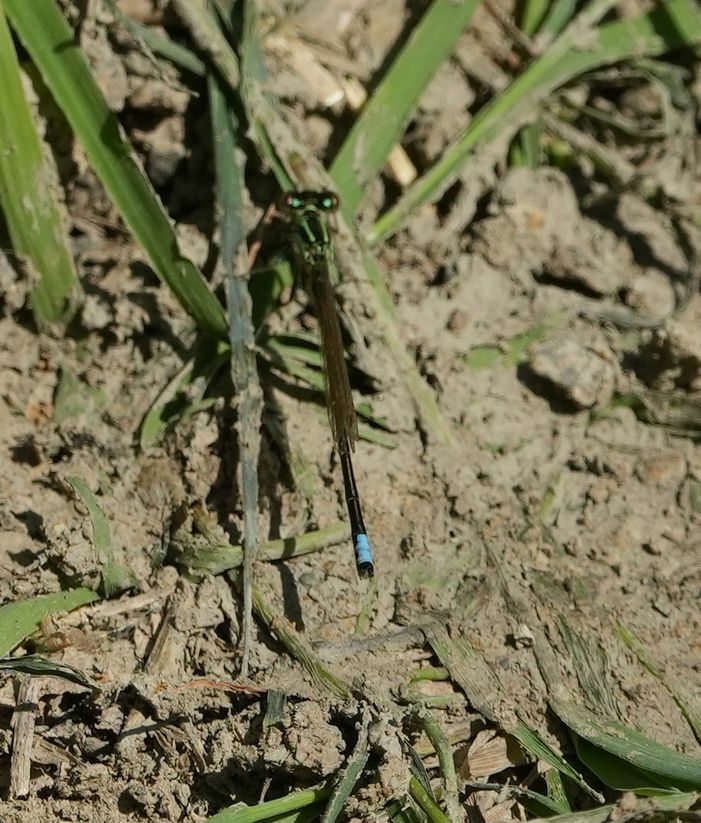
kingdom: Animalia
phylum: Arthropoda
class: Insecta
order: Odonata
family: Coenagrionidae
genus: Ischnura
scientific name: Ischnura verticalis
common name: Eastern forktail
